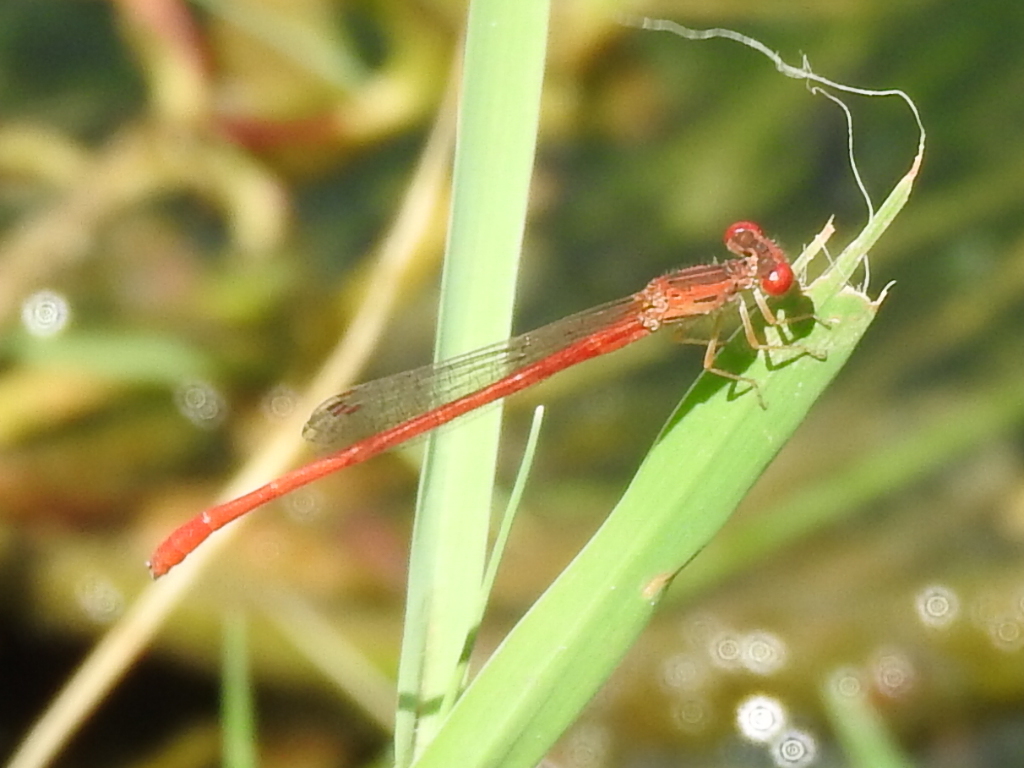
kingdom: Animalia
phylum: Arthropoda
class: Insecta
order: Odonata
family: Coenagrionidae
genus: Telebasis
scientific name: Telebasis salva
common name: Desert firetail
